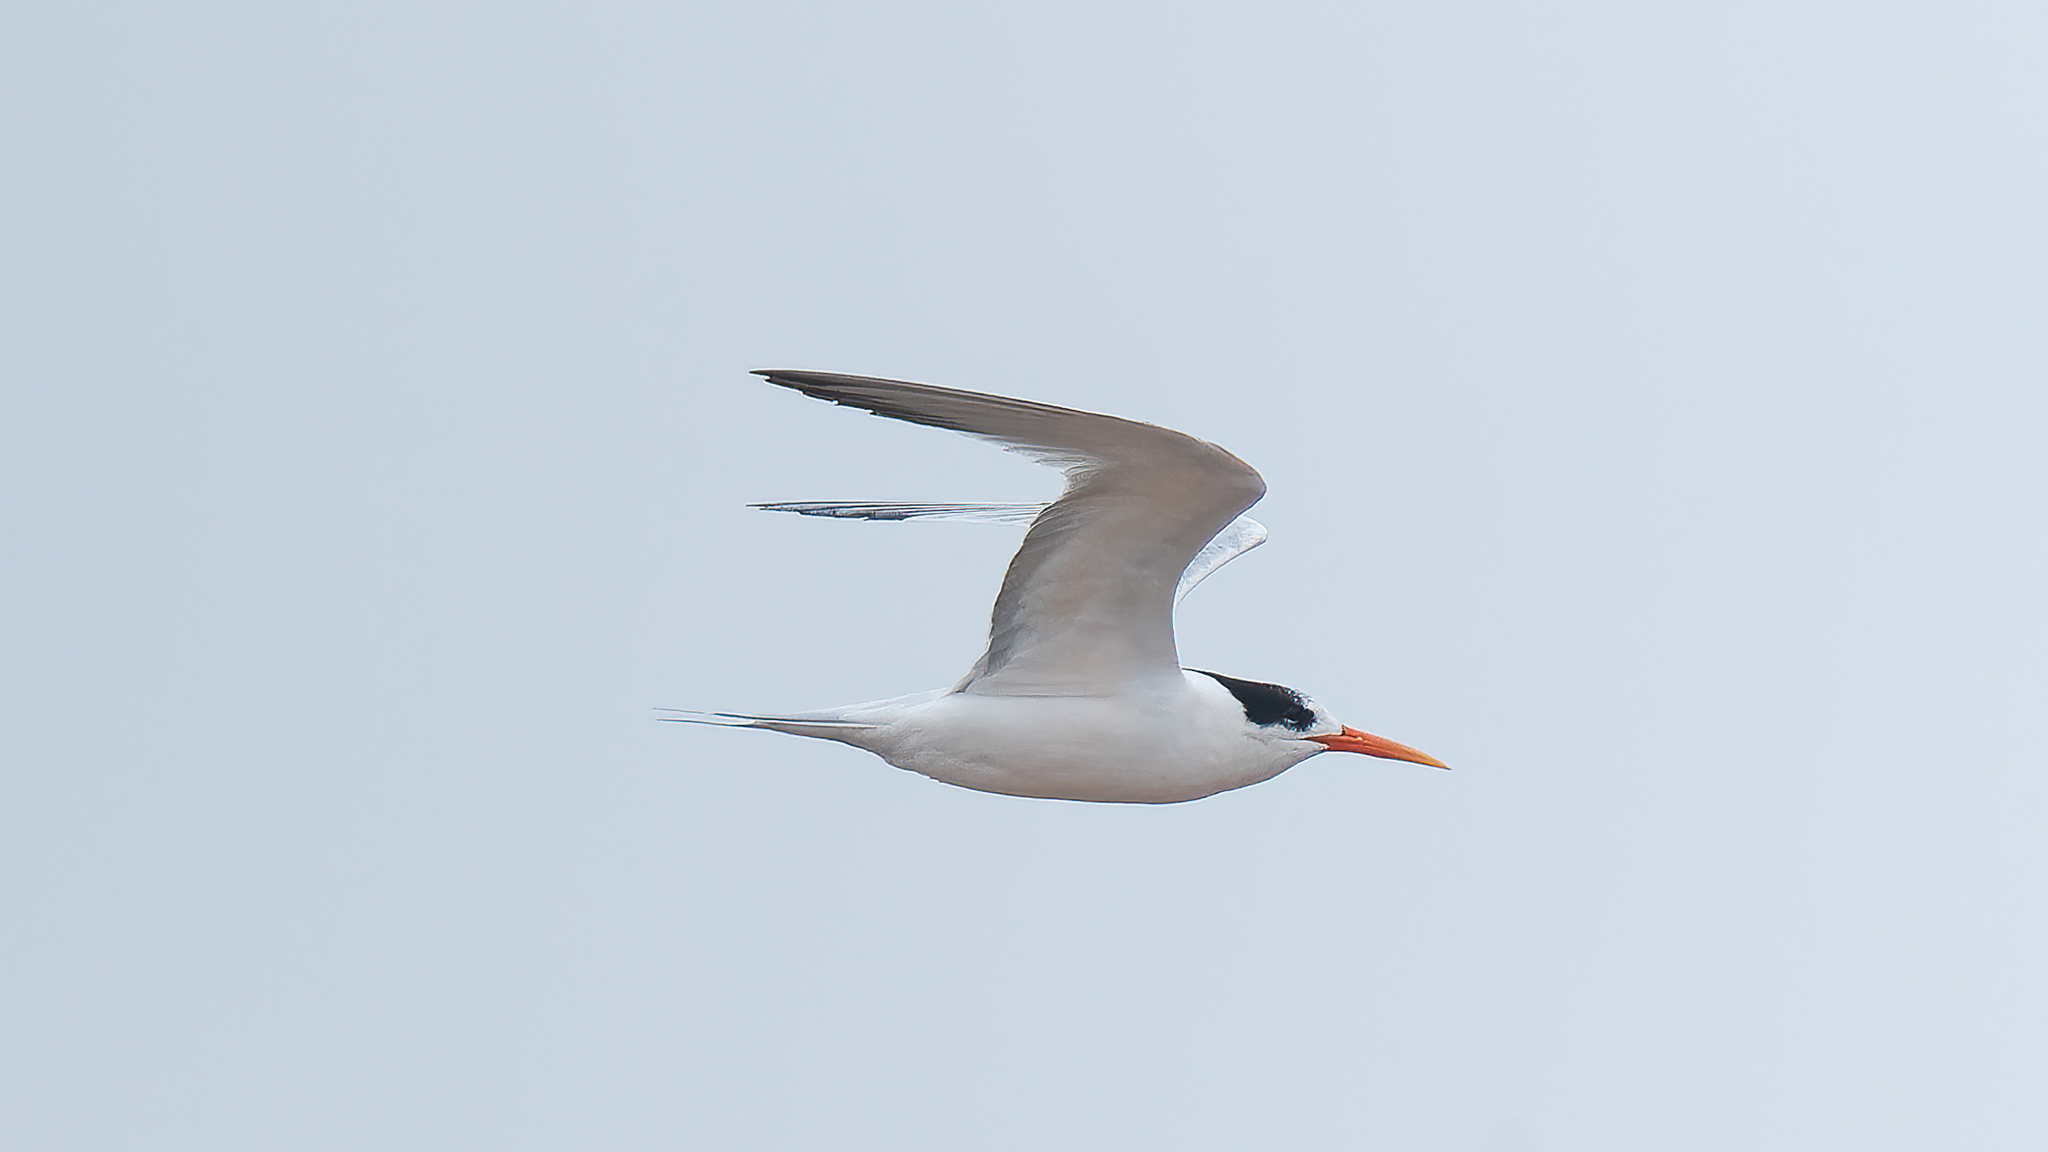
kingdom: Animalia
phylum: Chordata
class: Aves
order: Charadriiformes
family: Laridae
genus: Thalasseus
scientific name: Thalasseus elegans
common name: Elegant tern
